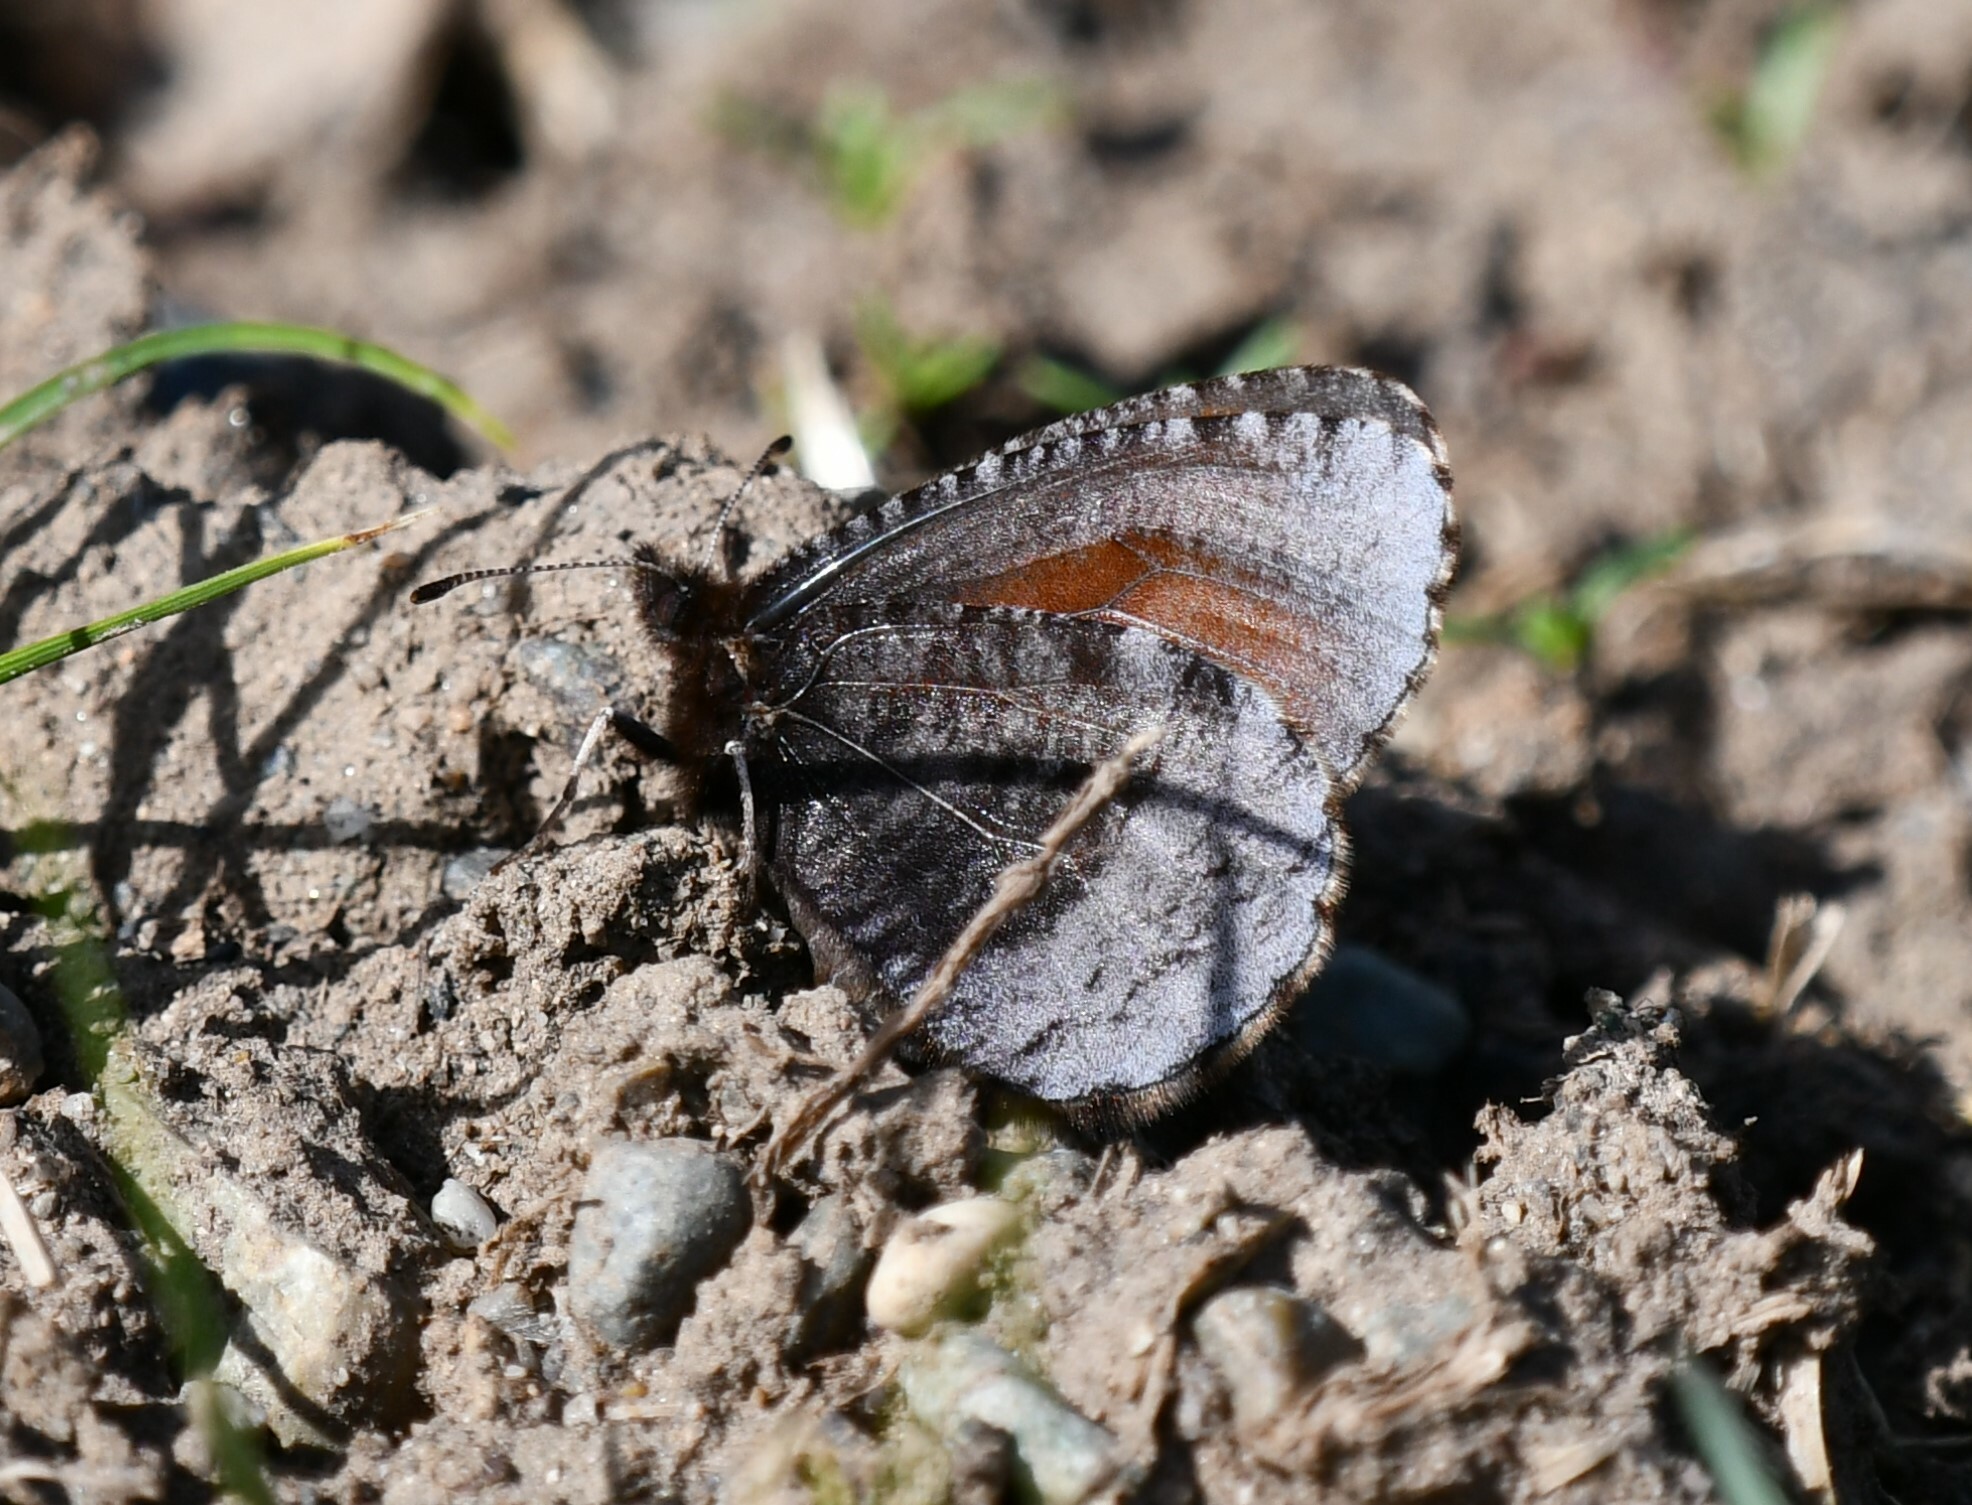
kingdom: Animalia
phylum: Arthropoda
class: Insecta
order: Lepidoptera
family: Nymphalidae
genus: Erebia
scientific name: Erebia discoidalis
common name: Red-disked alpine
